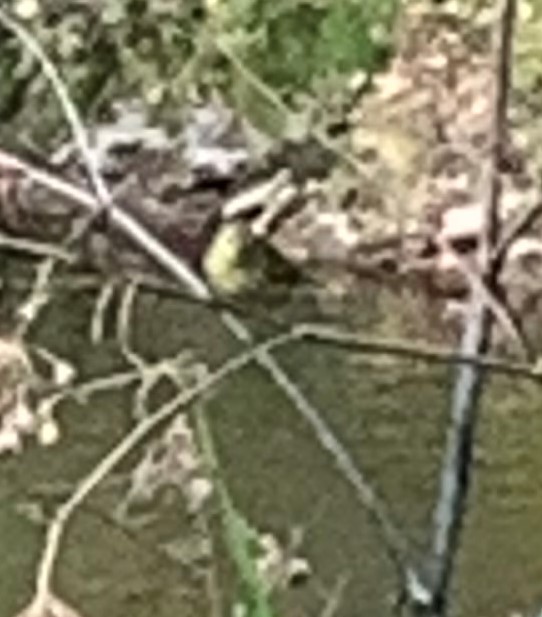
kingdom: Animalia
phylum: Chordata
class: Aves
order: Passeriformes
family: Fringillidae
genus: Spinus
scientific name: Spinus tristis
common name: American goldfinch
